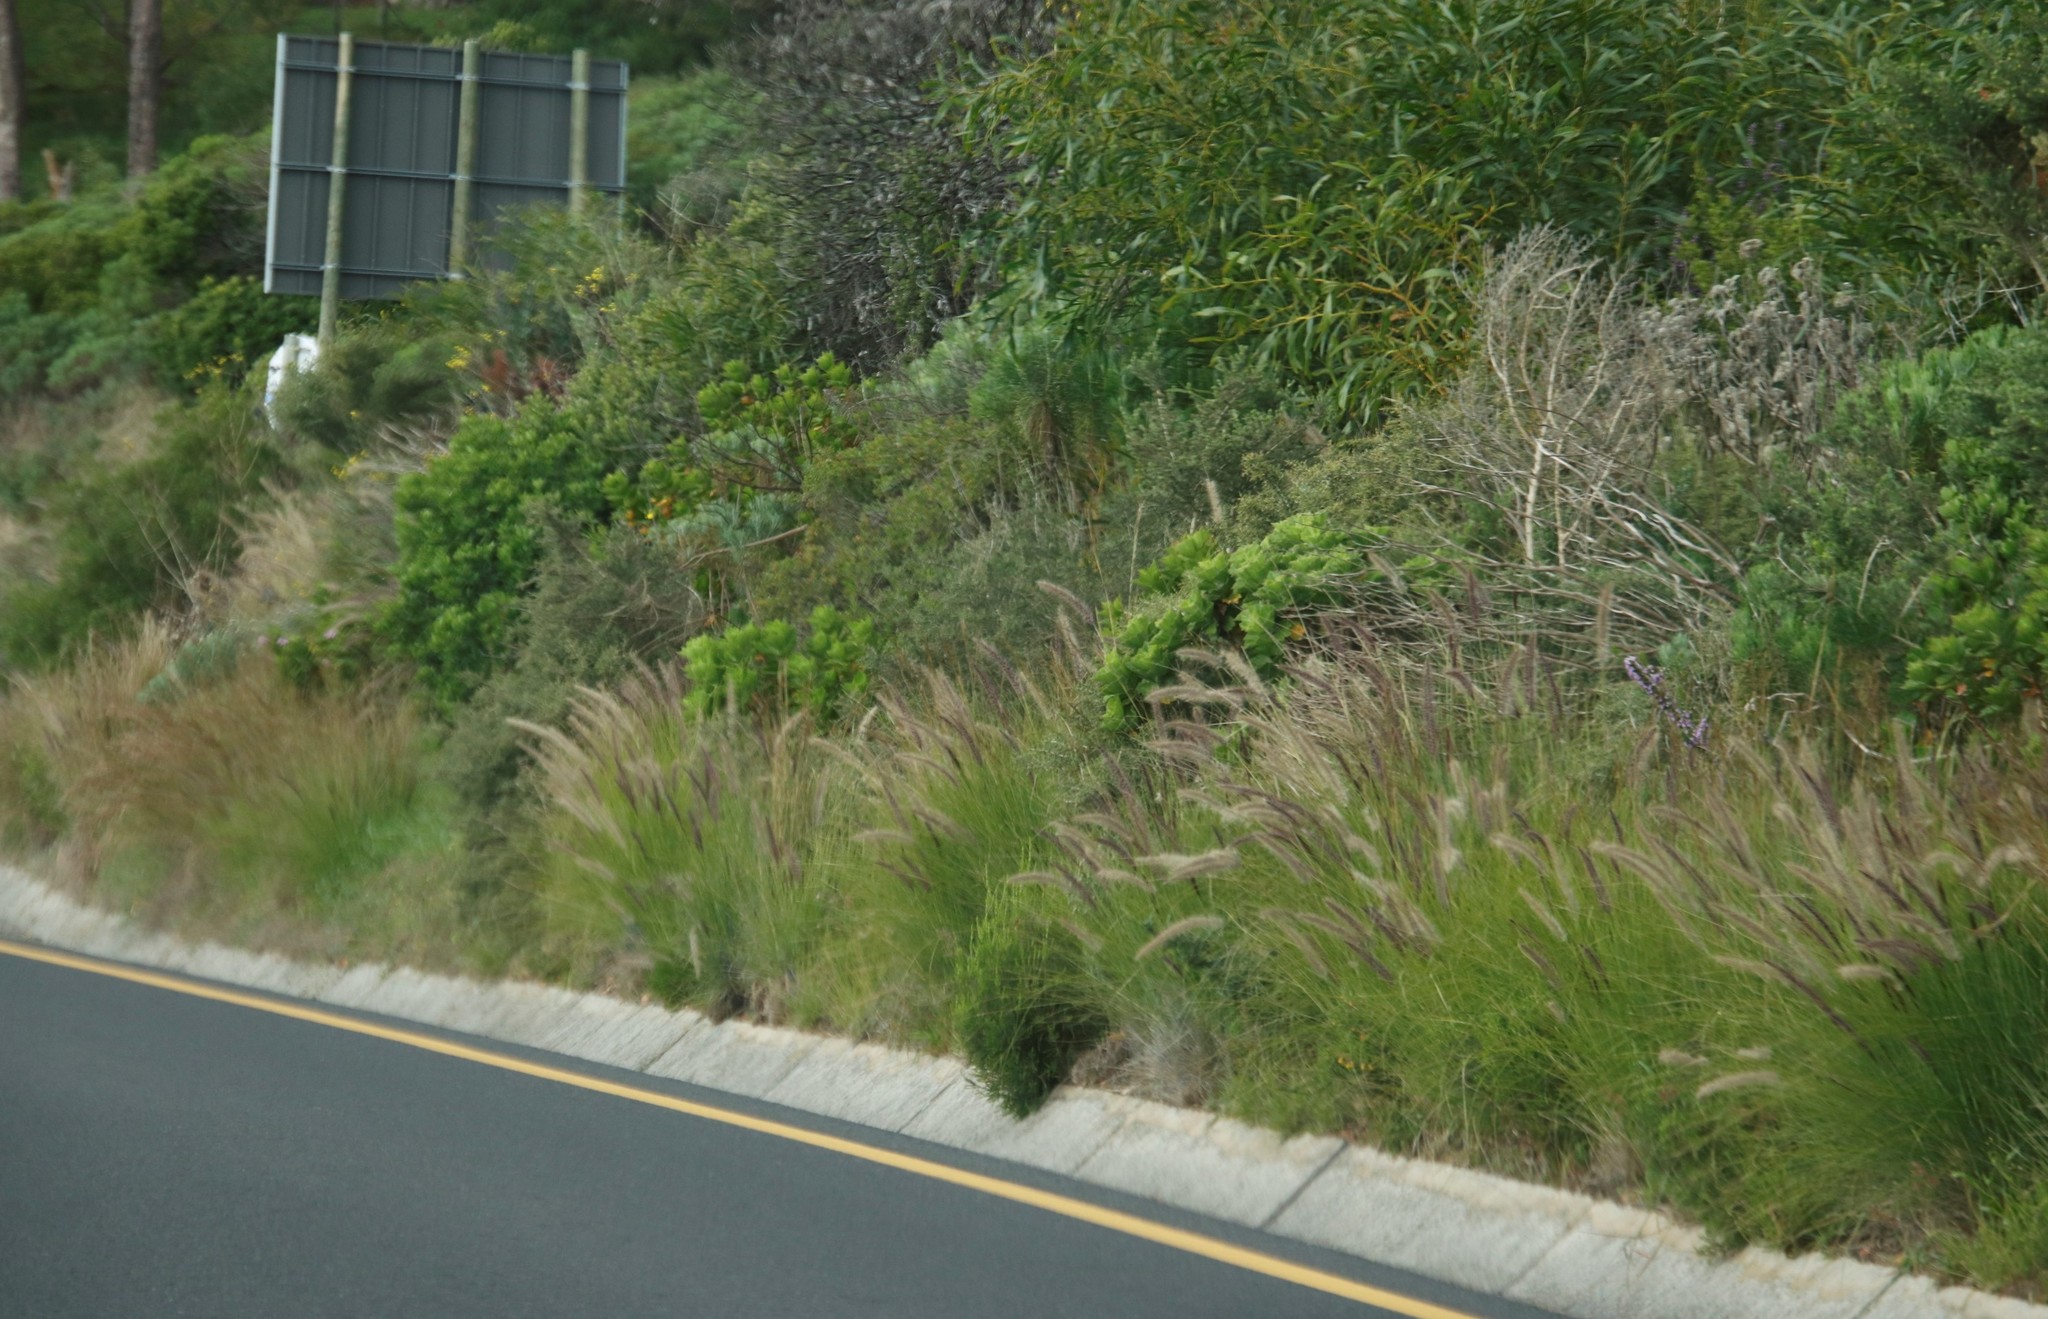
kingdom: Plantae
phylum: Tracheophyta
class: Liliopsida
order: Poales
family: Poaceae
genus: Cenchrus
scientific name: Cenchrus setaceus
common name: Crimson fountaingrass
